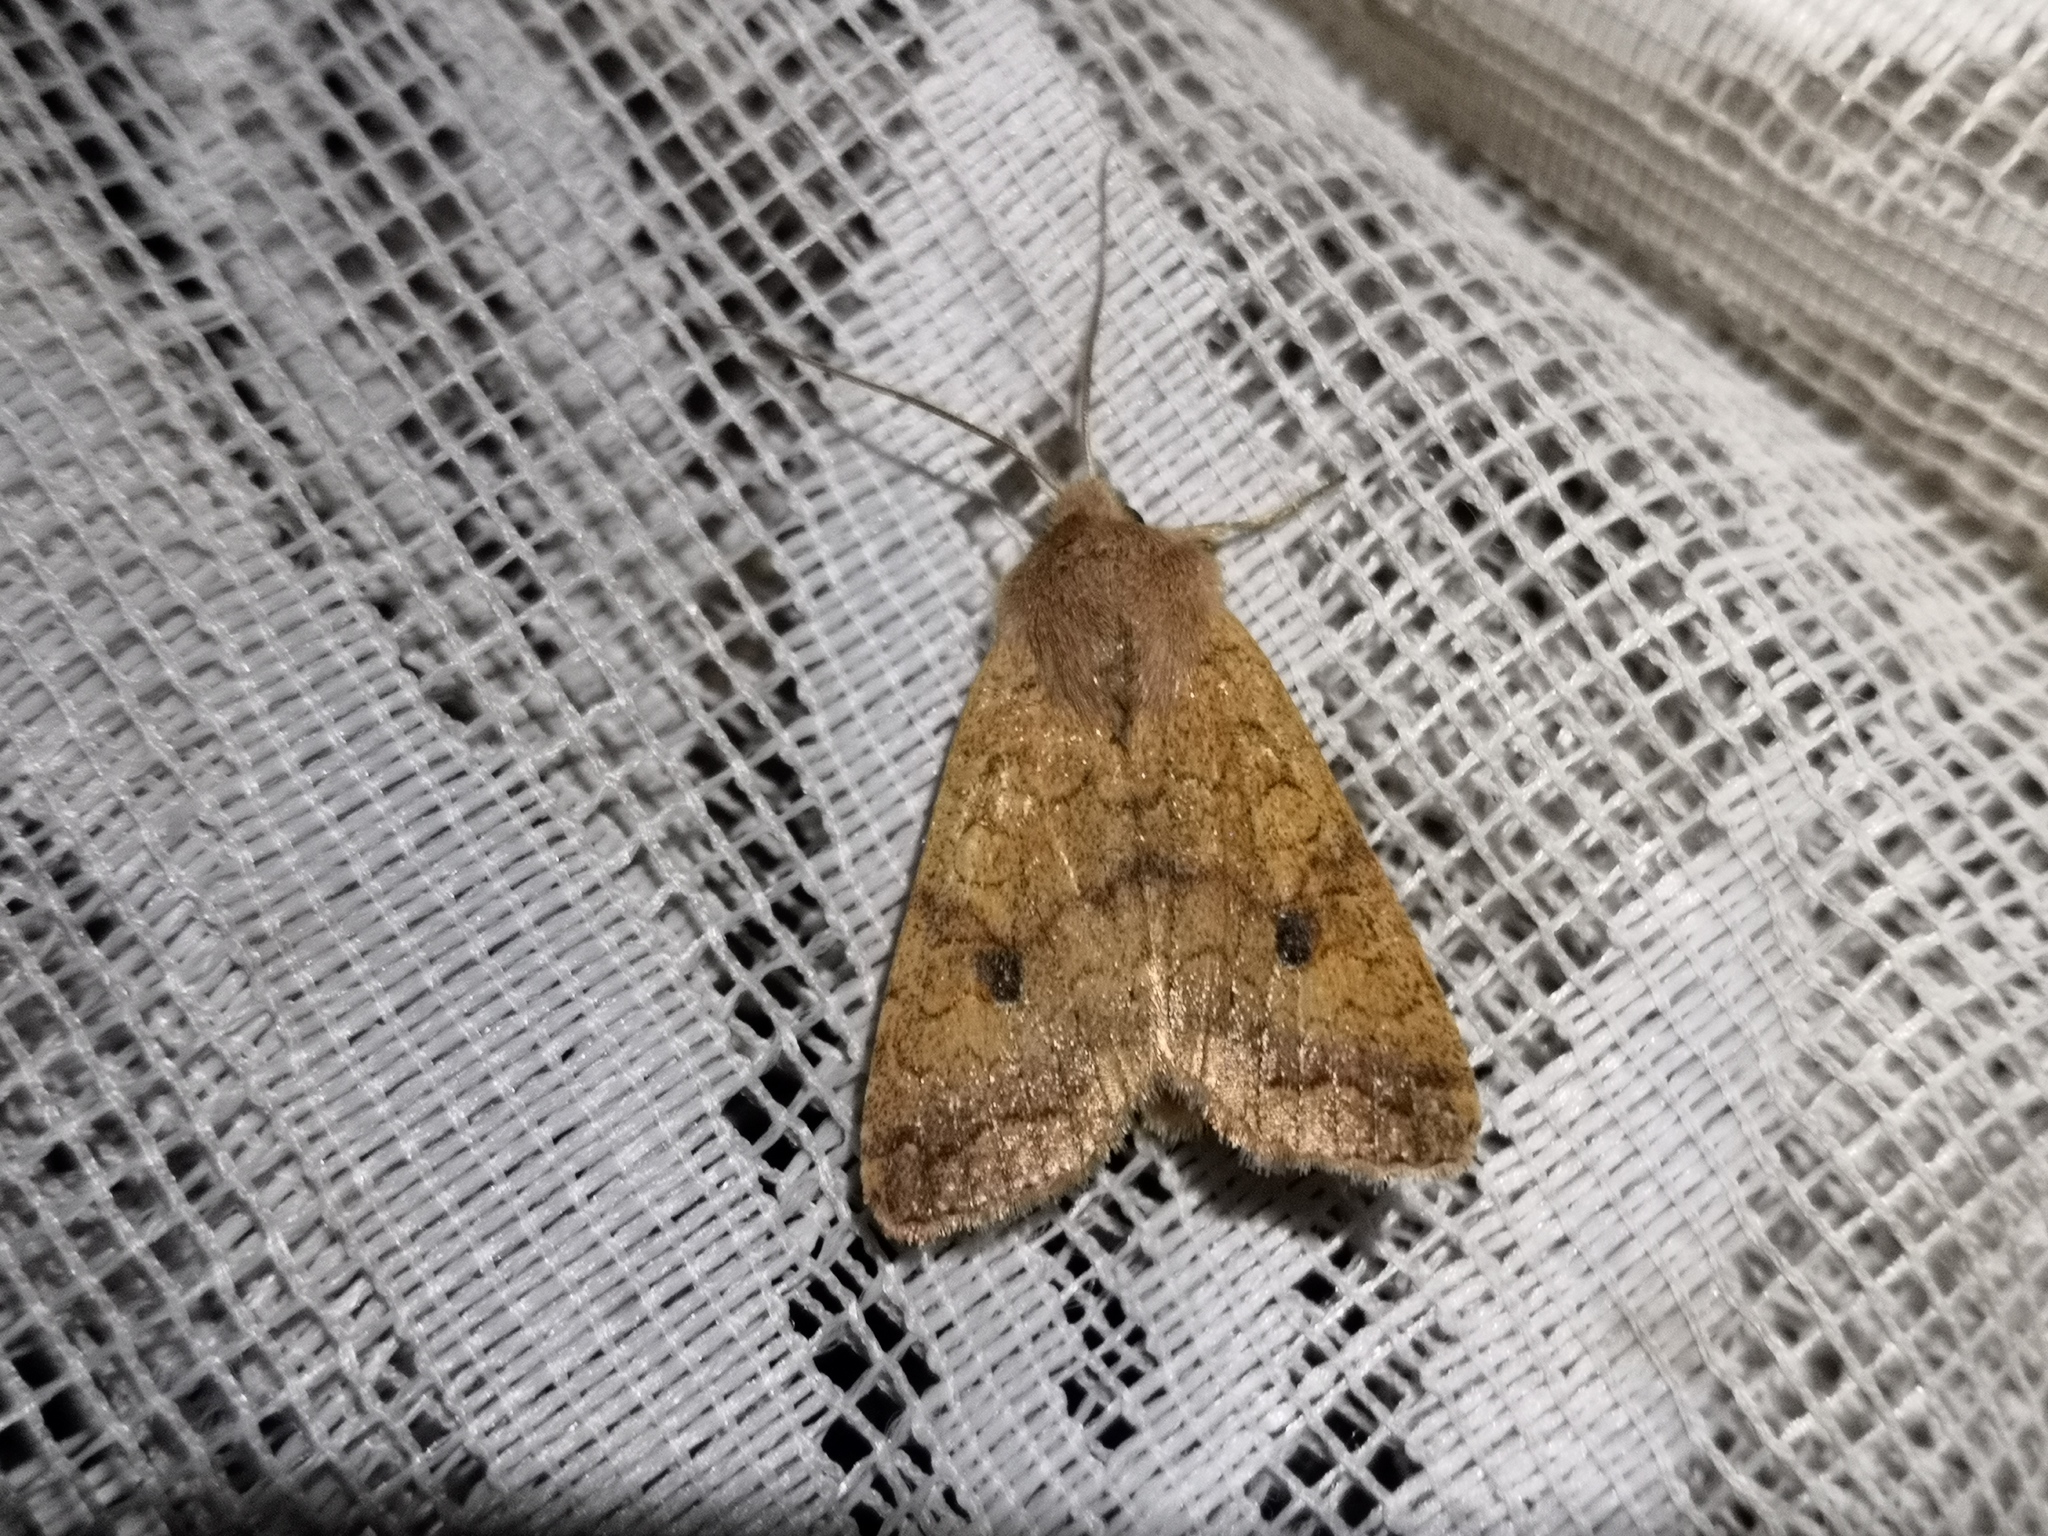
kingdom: Animalia
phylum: Arthropoda
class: Insecta
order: Lepidoptera
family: Noctuidae
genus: Sunira
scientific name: Sunira circellaris
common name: Brick
